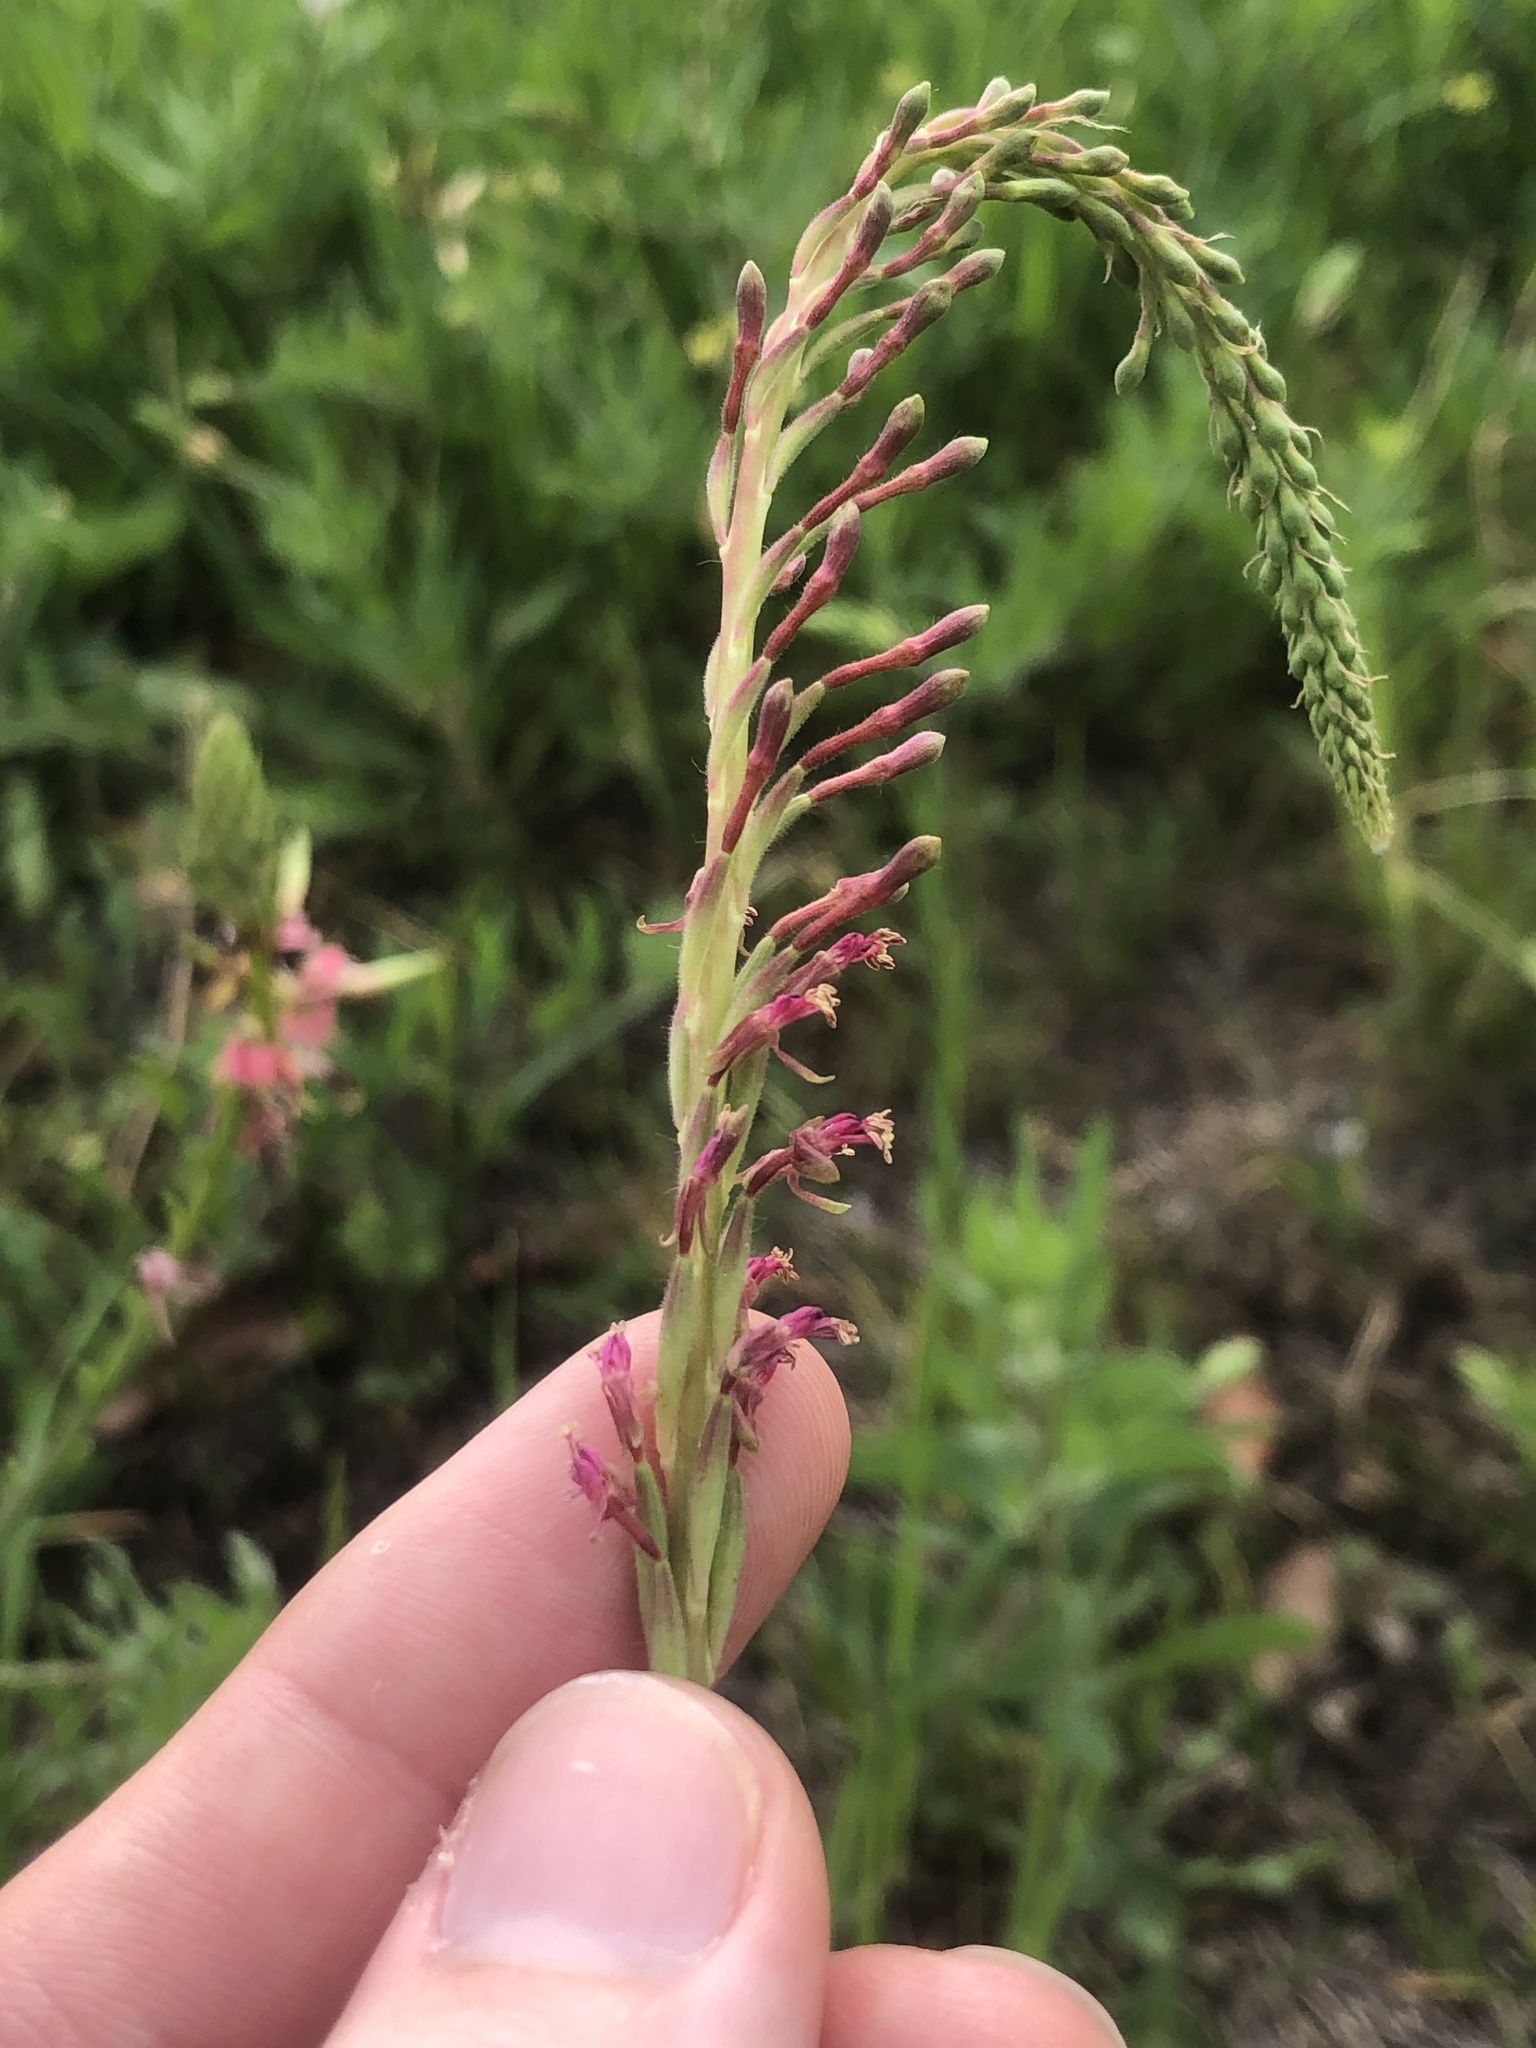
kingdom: Plantae
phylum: Tracheophyta
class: Magnoliopsida
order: Myrtales
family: Onagraceae
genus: Oenothera
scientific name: Oenothera curtiflora
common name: Velvetweed
